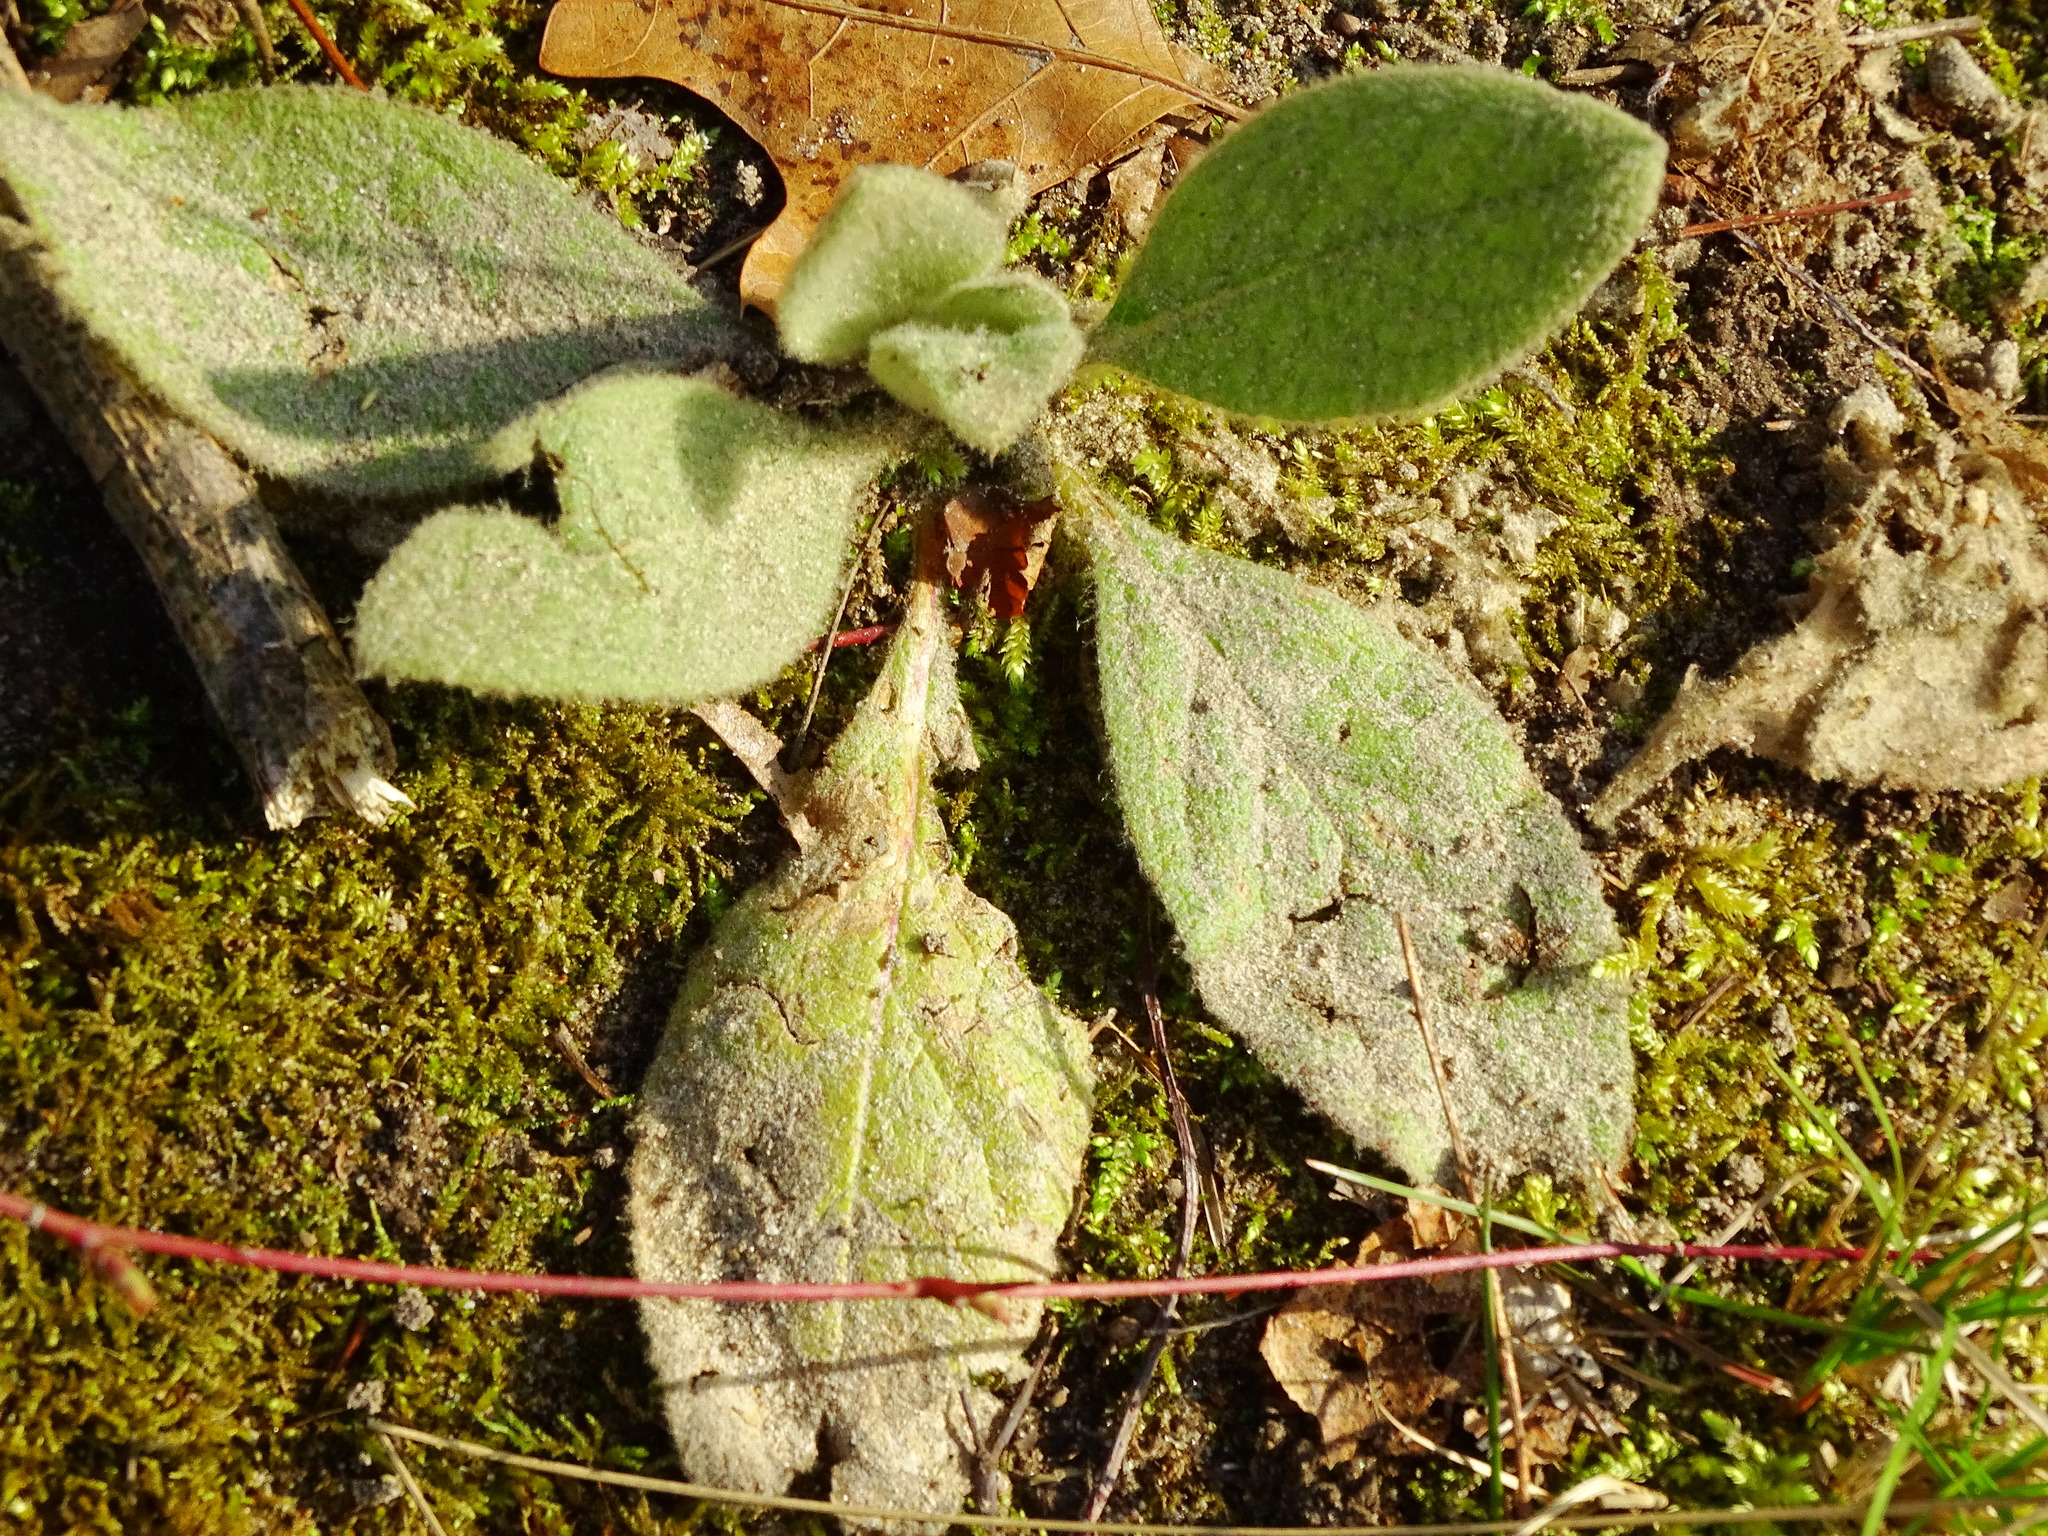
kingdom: Plantae
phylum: Tracheophyta
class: Magnoliopsida
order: Lamiales
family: Scrophulariaceae
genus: Verbascum
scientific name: Verbascum thapsus
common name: Common mullein
